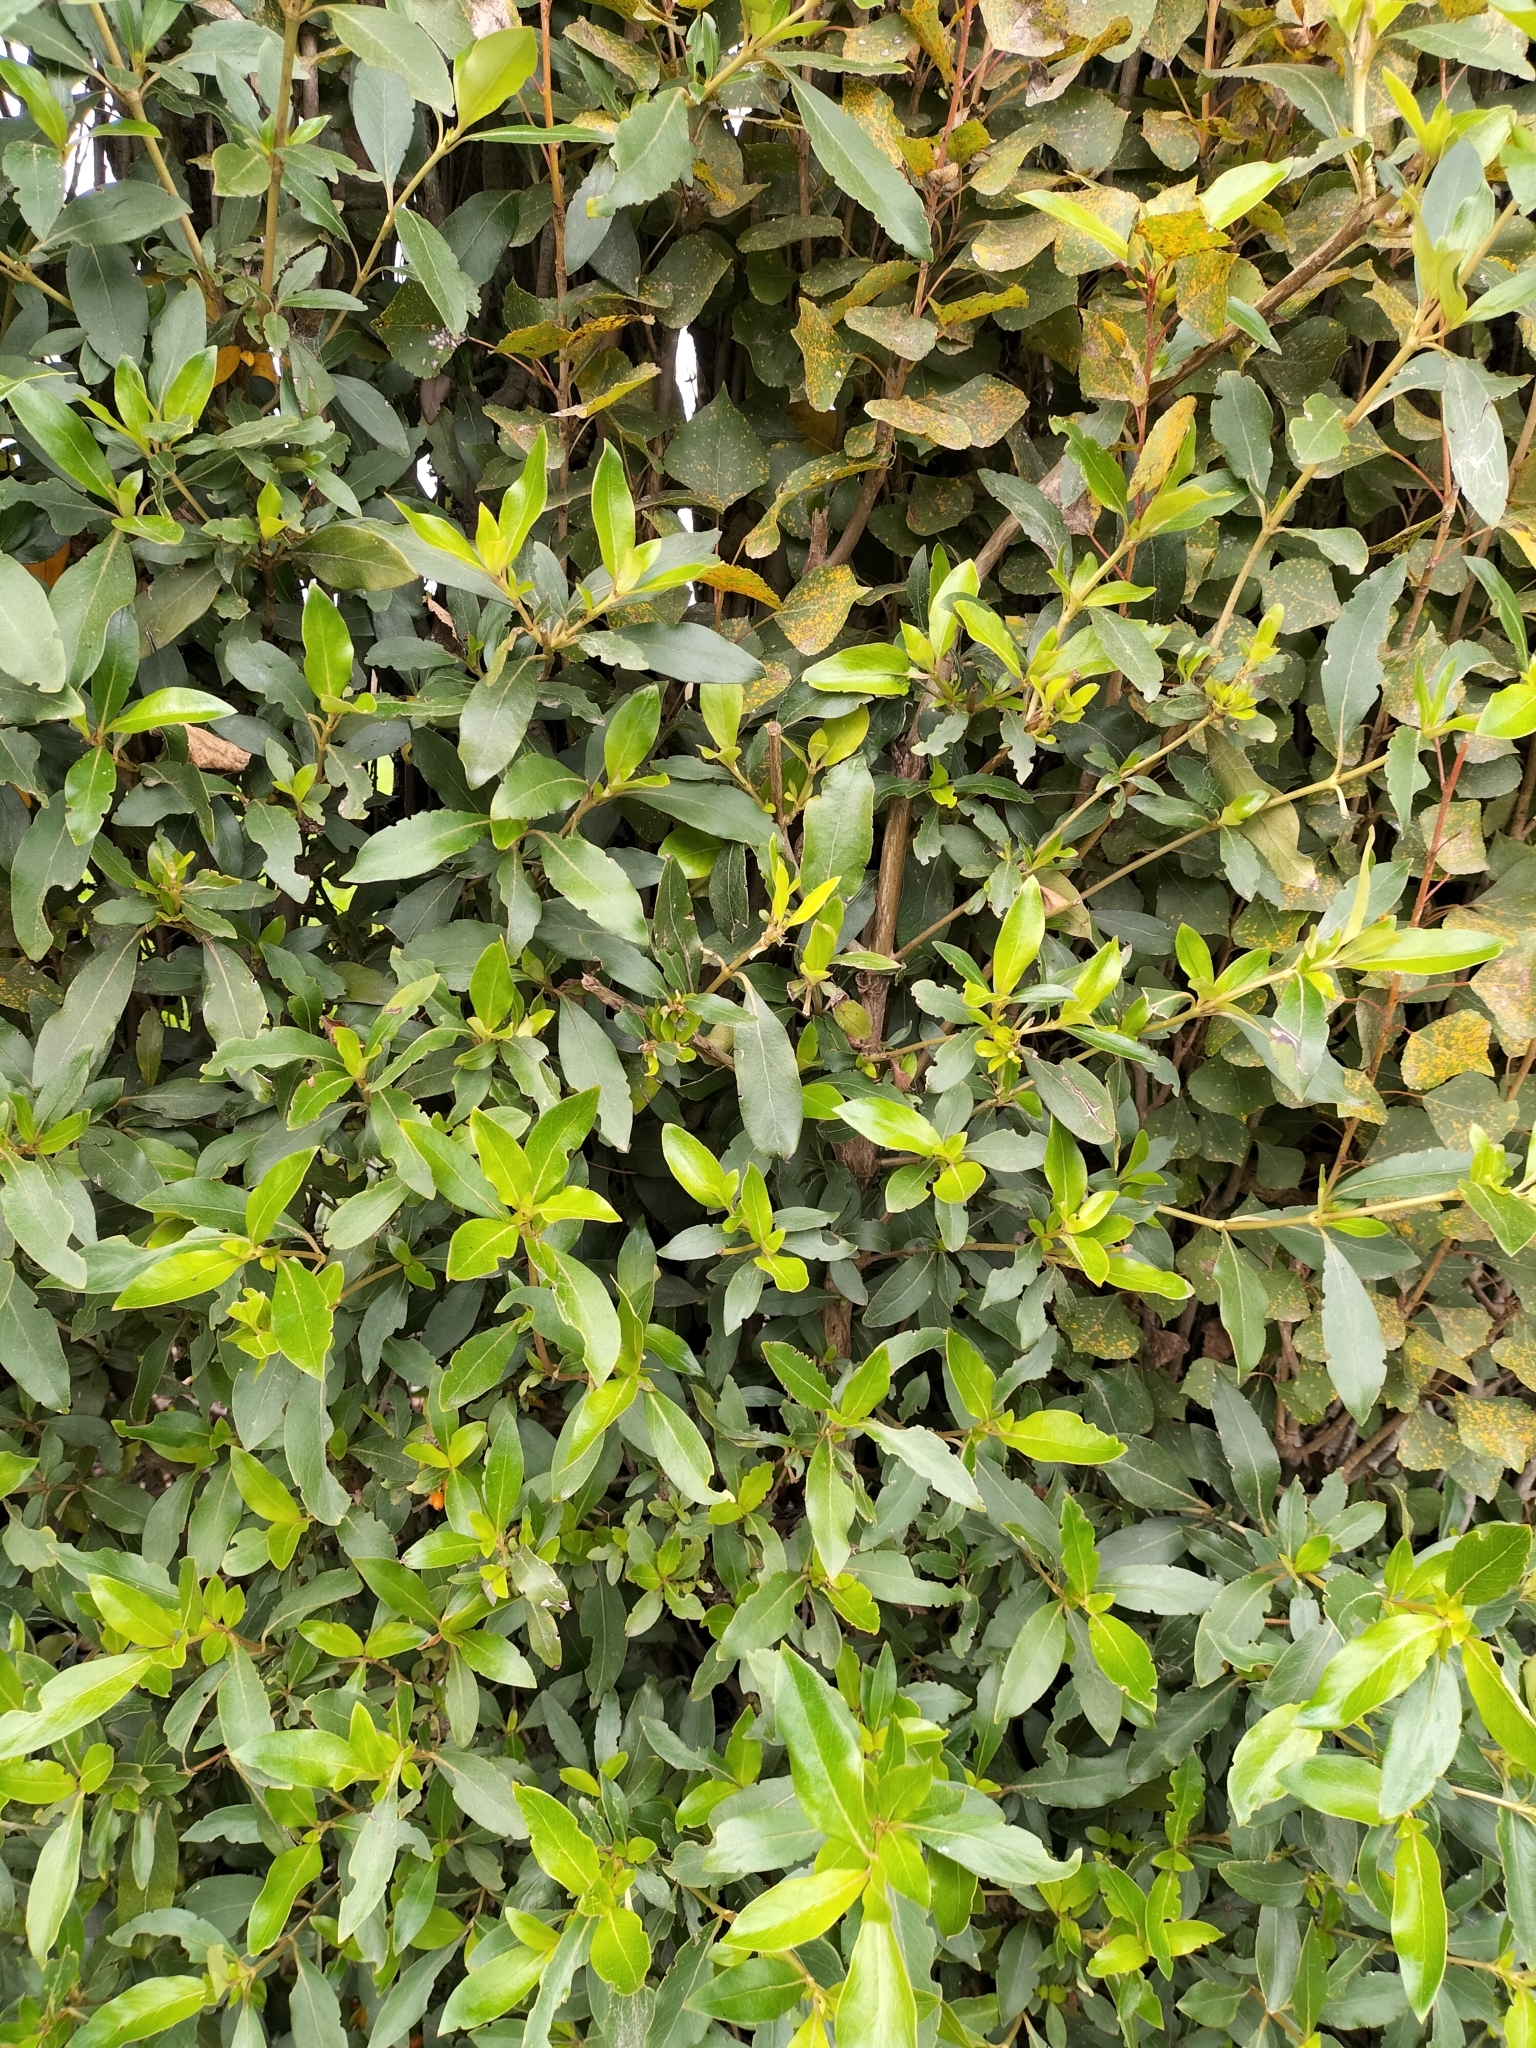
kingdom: Plantae
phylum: Tracheophyta
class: Magnoliopsida
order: Gentianales
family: Rubiaceae
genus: Coprosma
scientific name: Coprosma robusta
